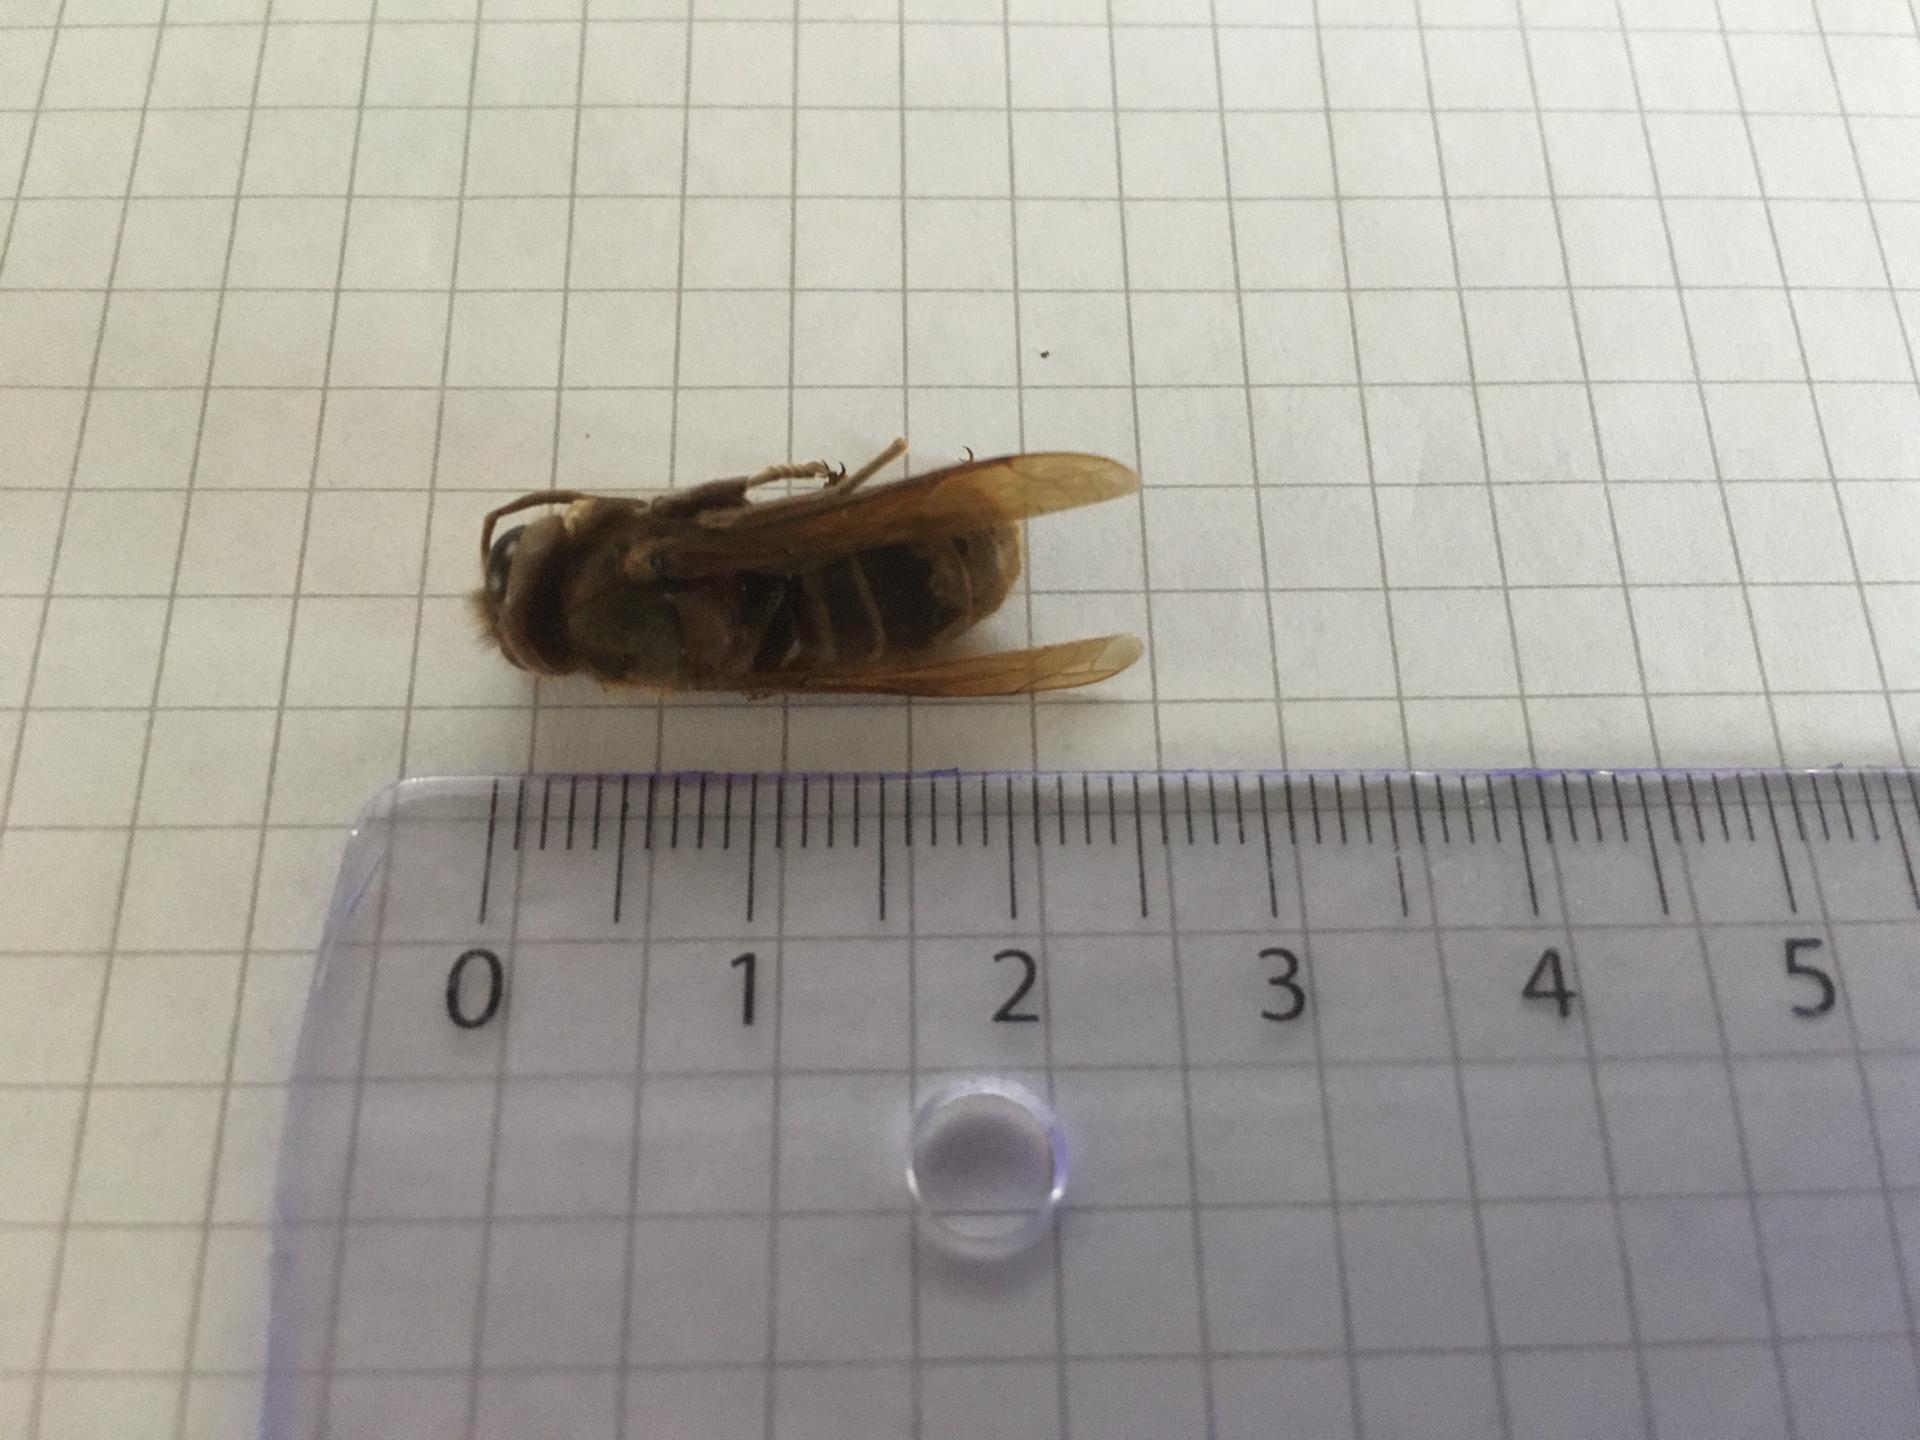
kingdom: Animalia
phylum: Arthropoda
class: Insecta
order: Hymenoptera
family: Vespidae
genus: Vespa
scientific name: Vespa crabro
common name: Hornet
